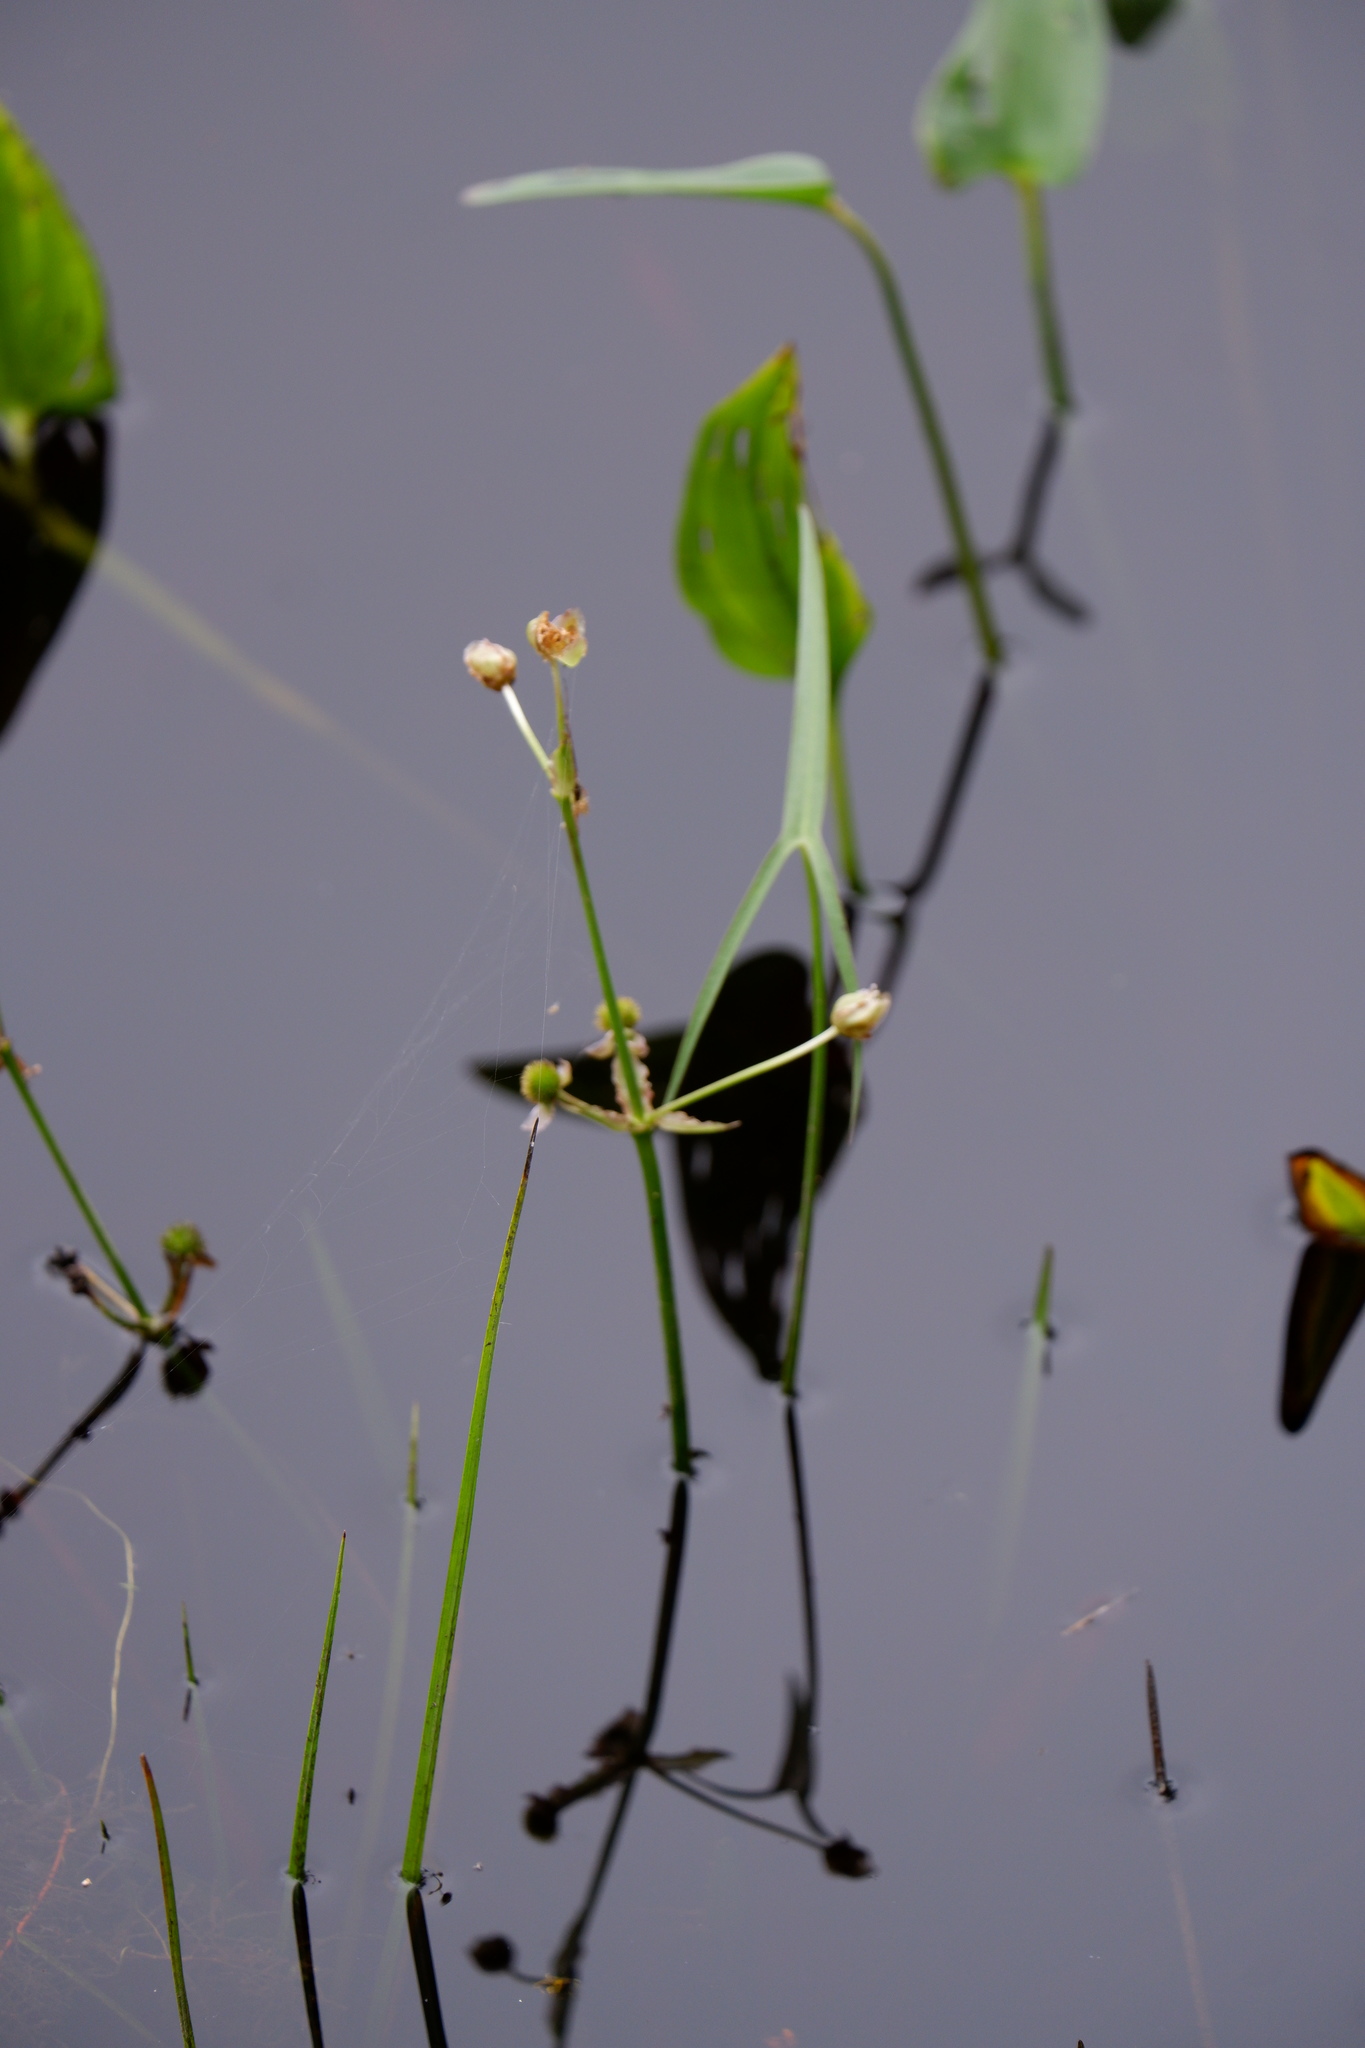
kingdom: Plantae
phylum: Tracheophyta
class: Liliopsida
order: Alismatales
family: Alismataceae
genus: Sagittaria
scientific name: Sagittaria engelmanniana
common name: Acid-water arrowhead
